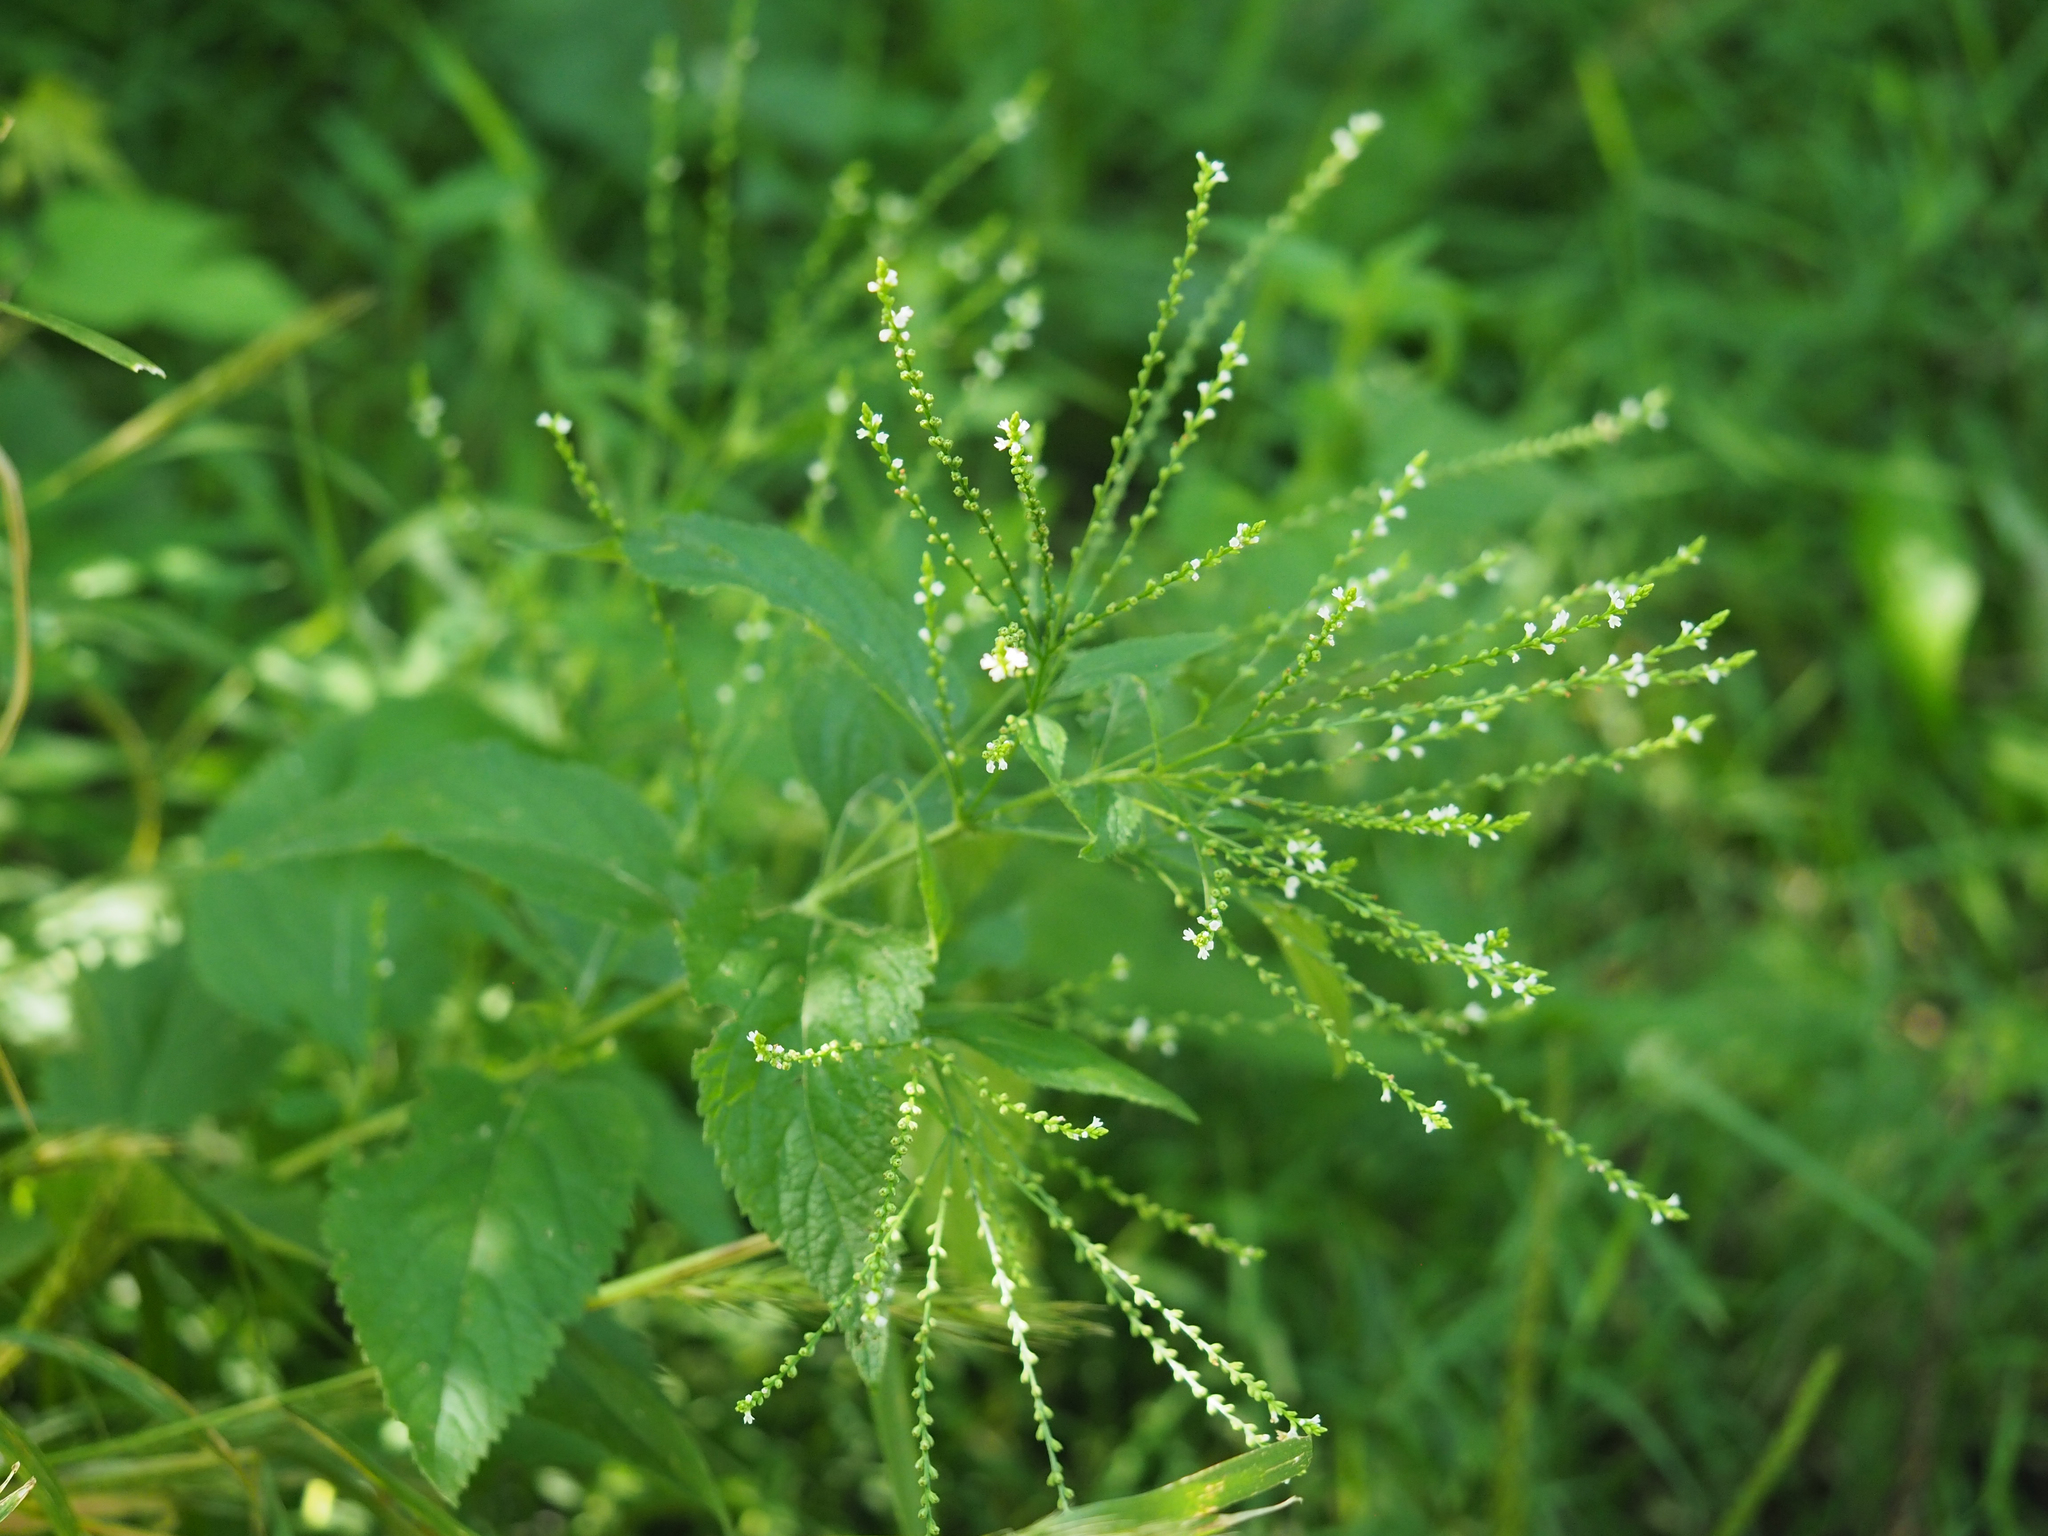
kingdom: Plantae
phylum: Tracheophyta
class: Magnoliopsida
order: Lamiales
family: Verbenaceae
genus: Verbena
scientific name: Verbena urticifolia
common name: Nettle-leaved vervain
